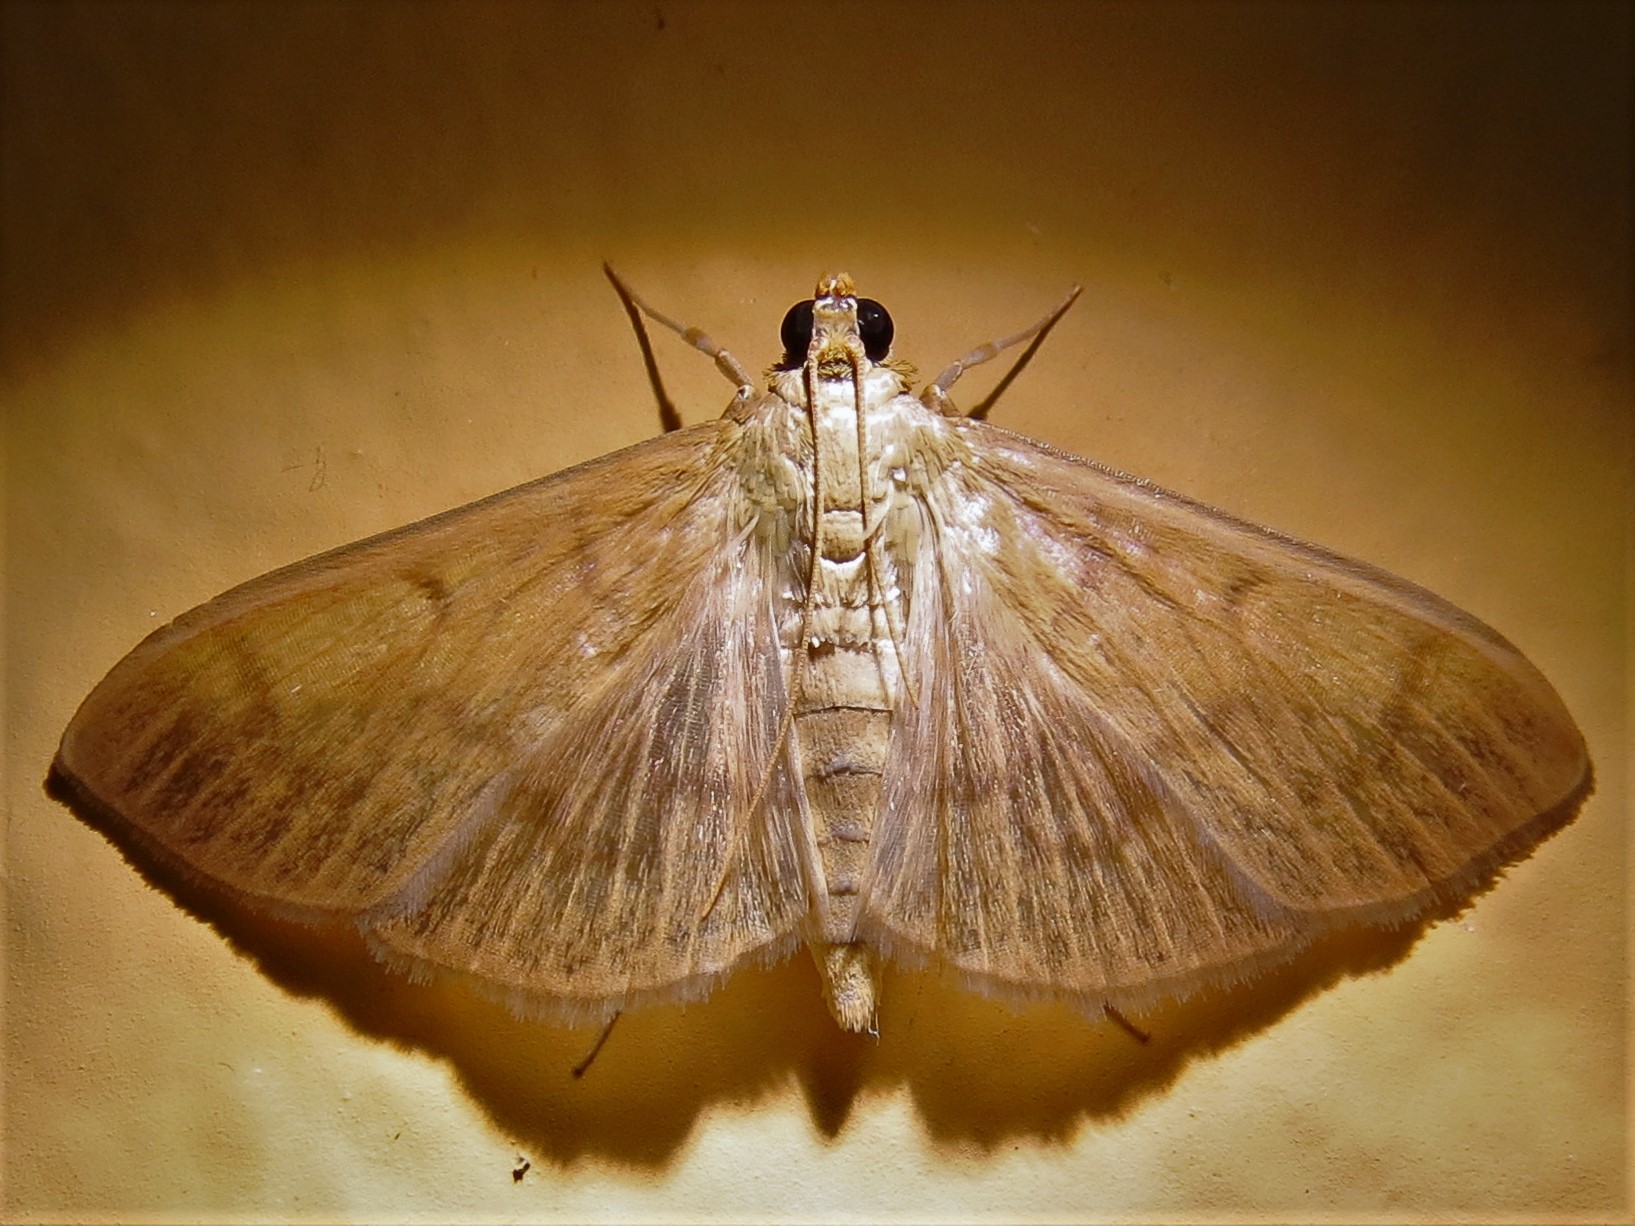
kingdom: Animalia
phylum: Arthropoda
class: Insecta
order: Lepidoptera
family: Crambidae
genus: Pleuroptya
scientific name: Pleuroptya silicalis
